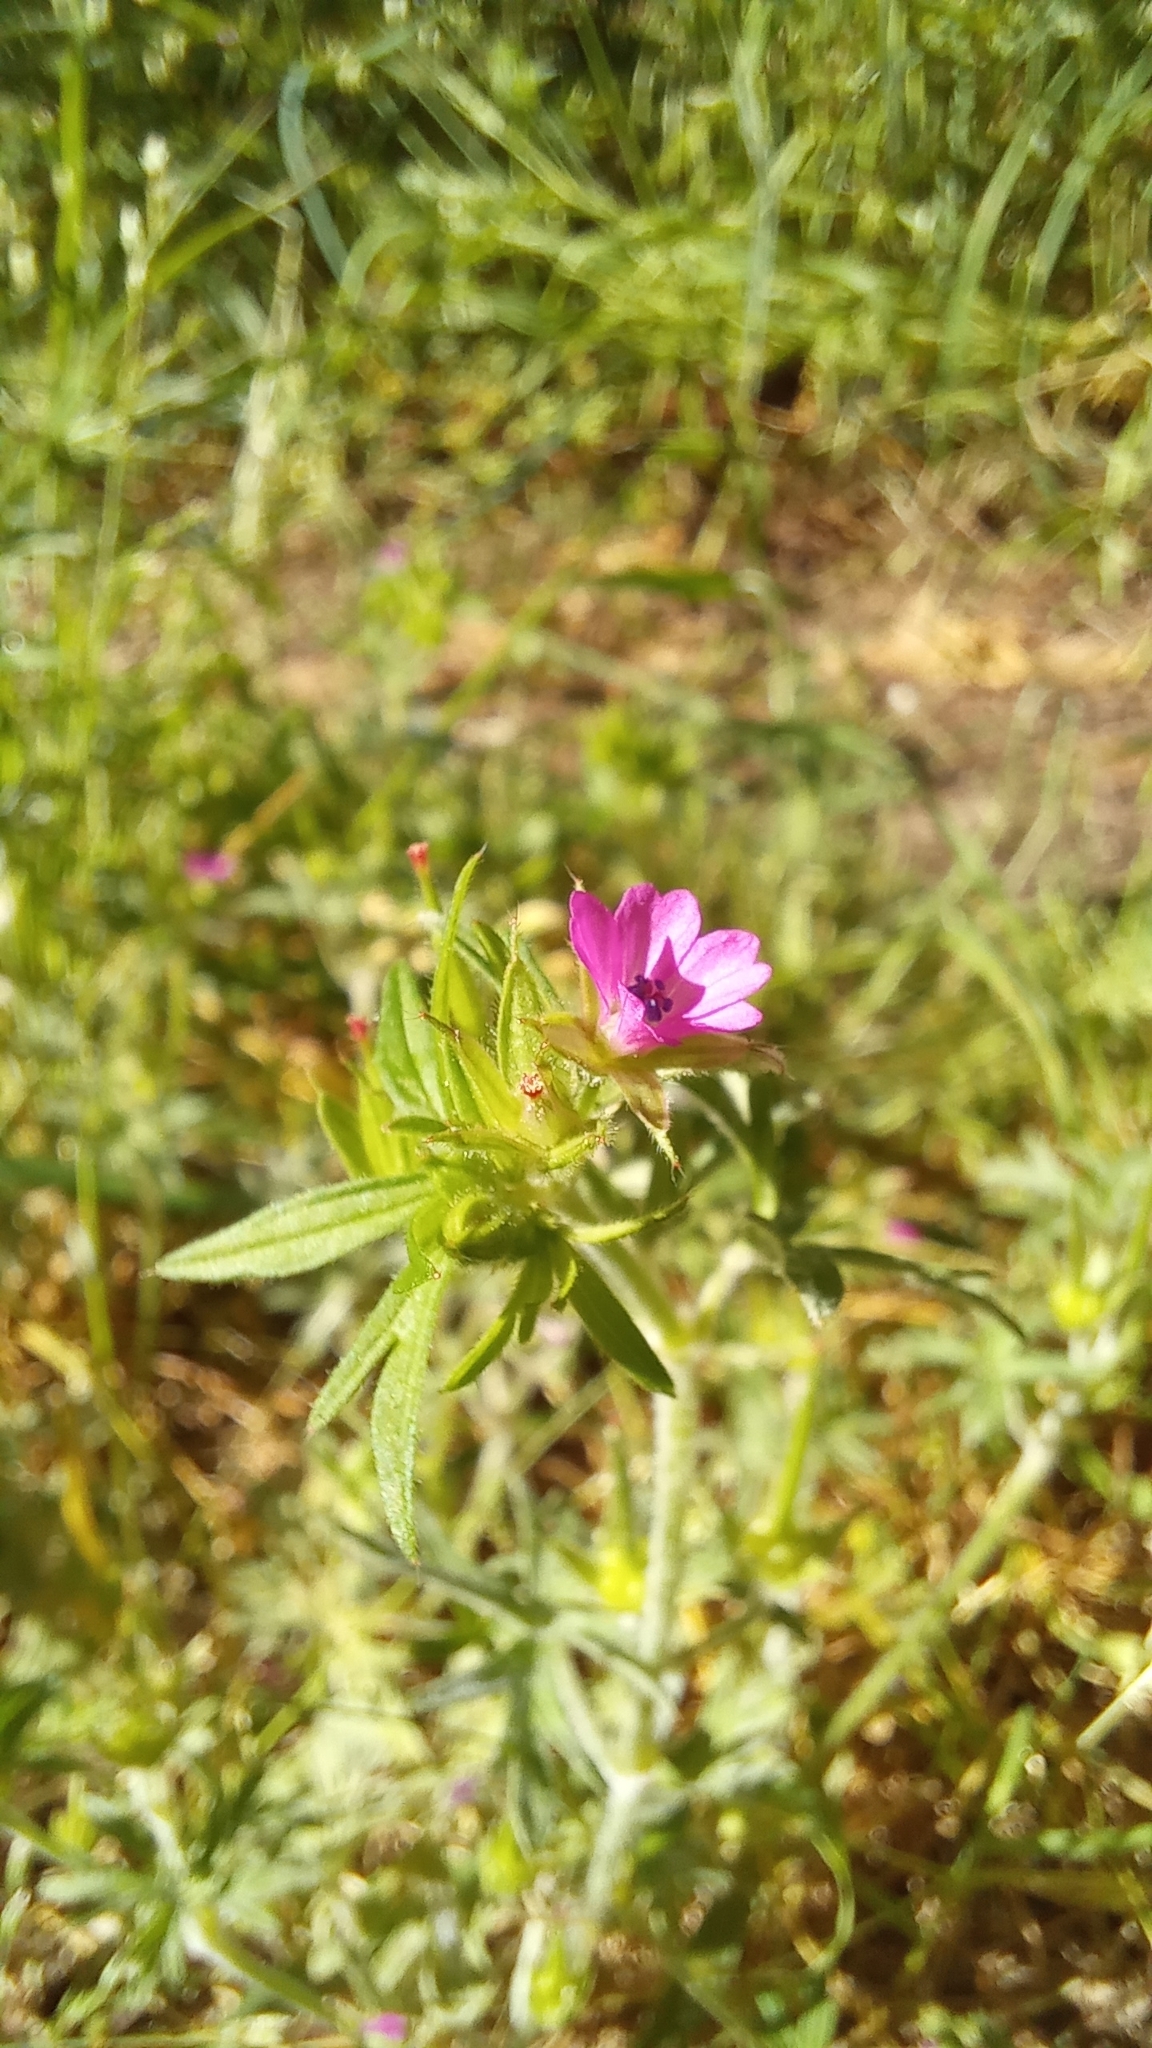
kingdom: Plantae
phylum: Tracheophyta
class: Magnoliopsida
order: Geraniales
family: Geraniaceae
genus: Geranium
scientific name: Geranium dissectum
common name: Cut-leaved crane's-bill
